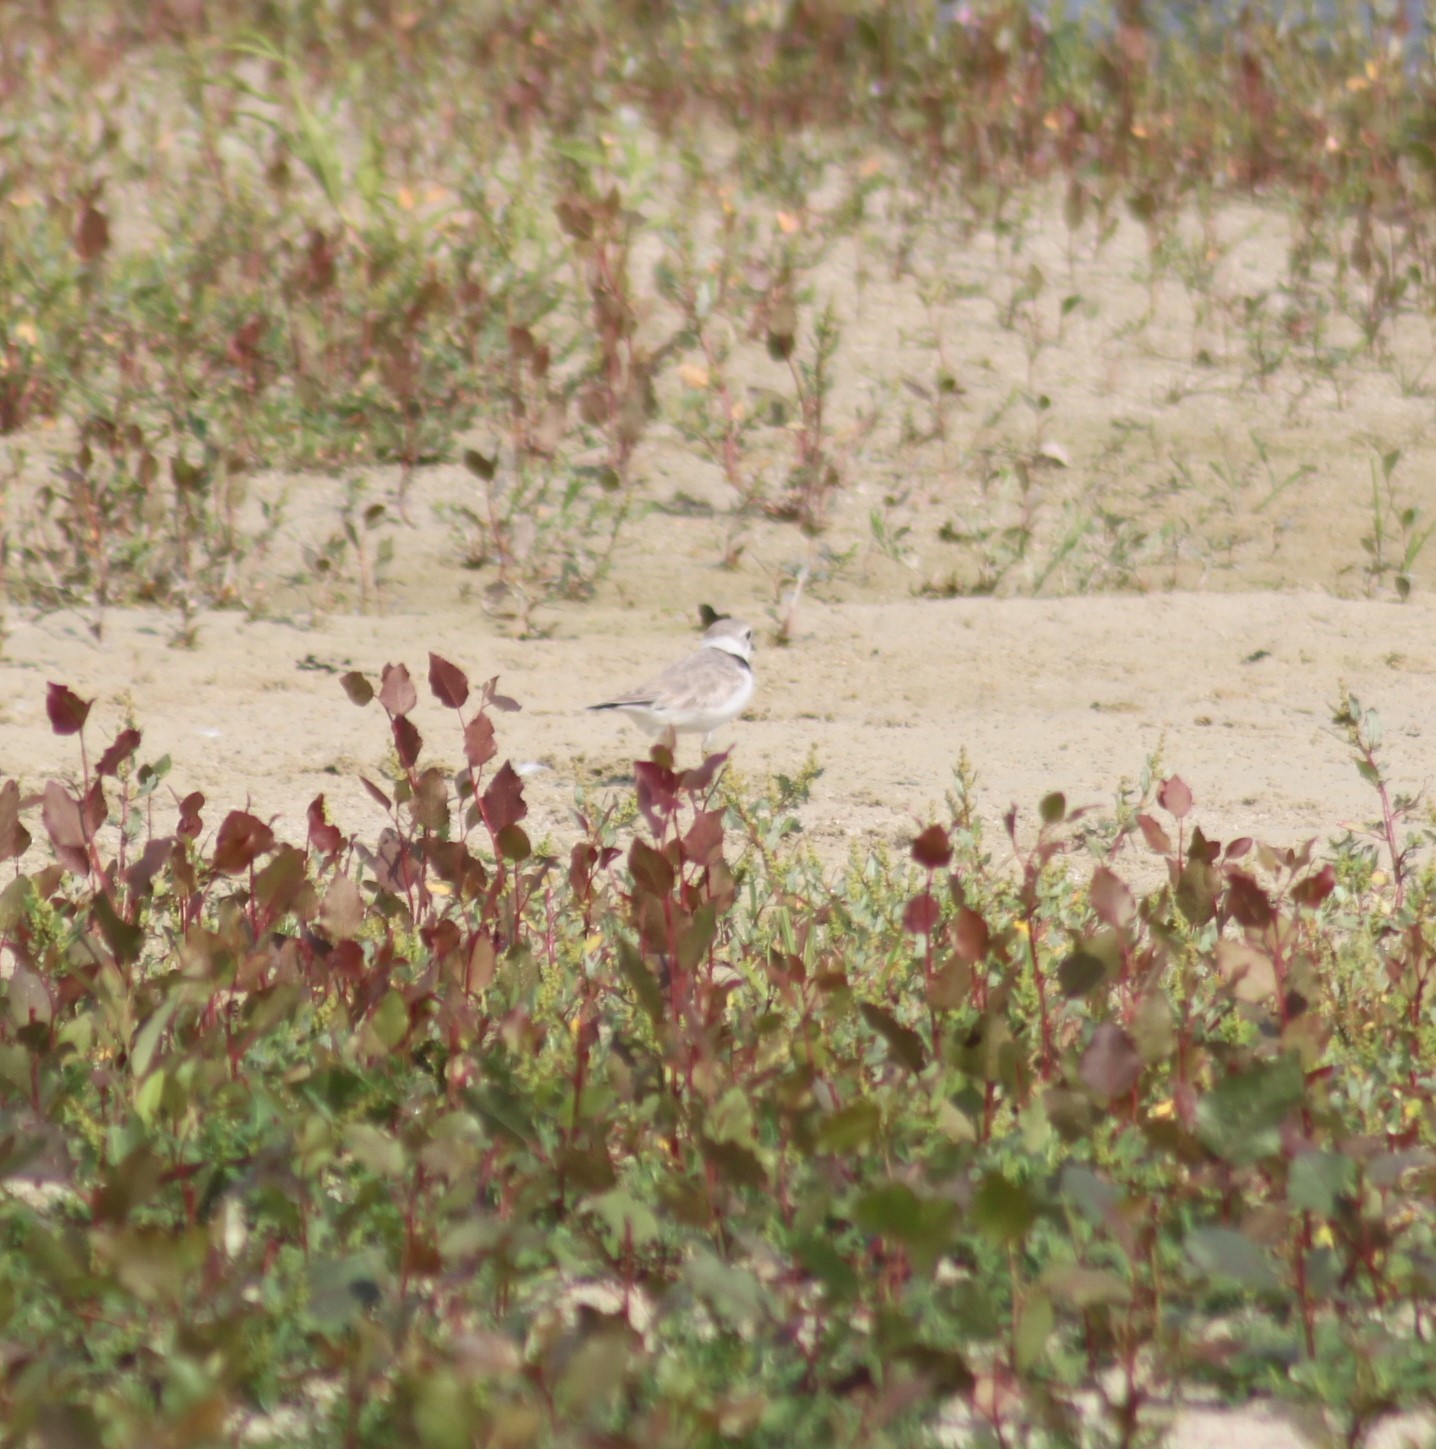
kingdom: Animalia
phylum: Chordata
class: Aves
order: Charadriiformes
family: Charadriidae
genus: Charadrius
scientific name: Charadrius melodus
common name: Piping plover
